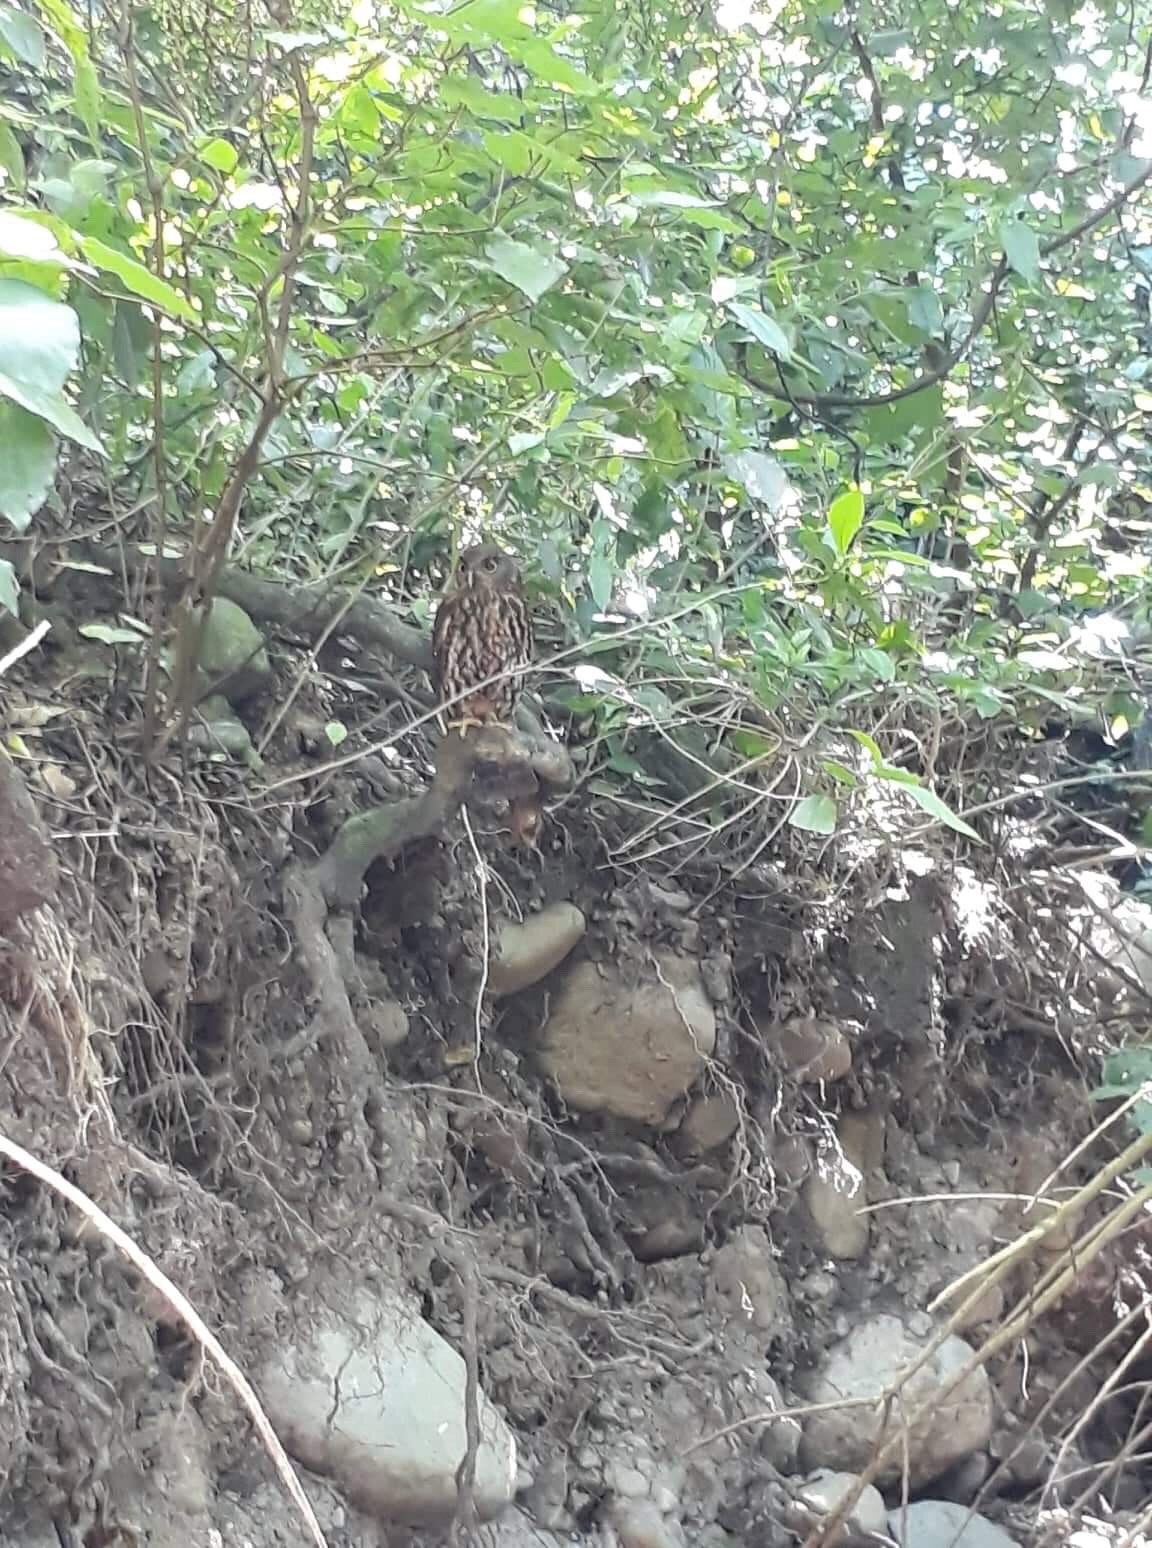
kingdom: Animalia
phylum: Chordata
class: Aves
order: Strigiformes
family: Strigidae
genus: Ninox
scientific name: Ninox novaeseelandiae
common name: Morepork
